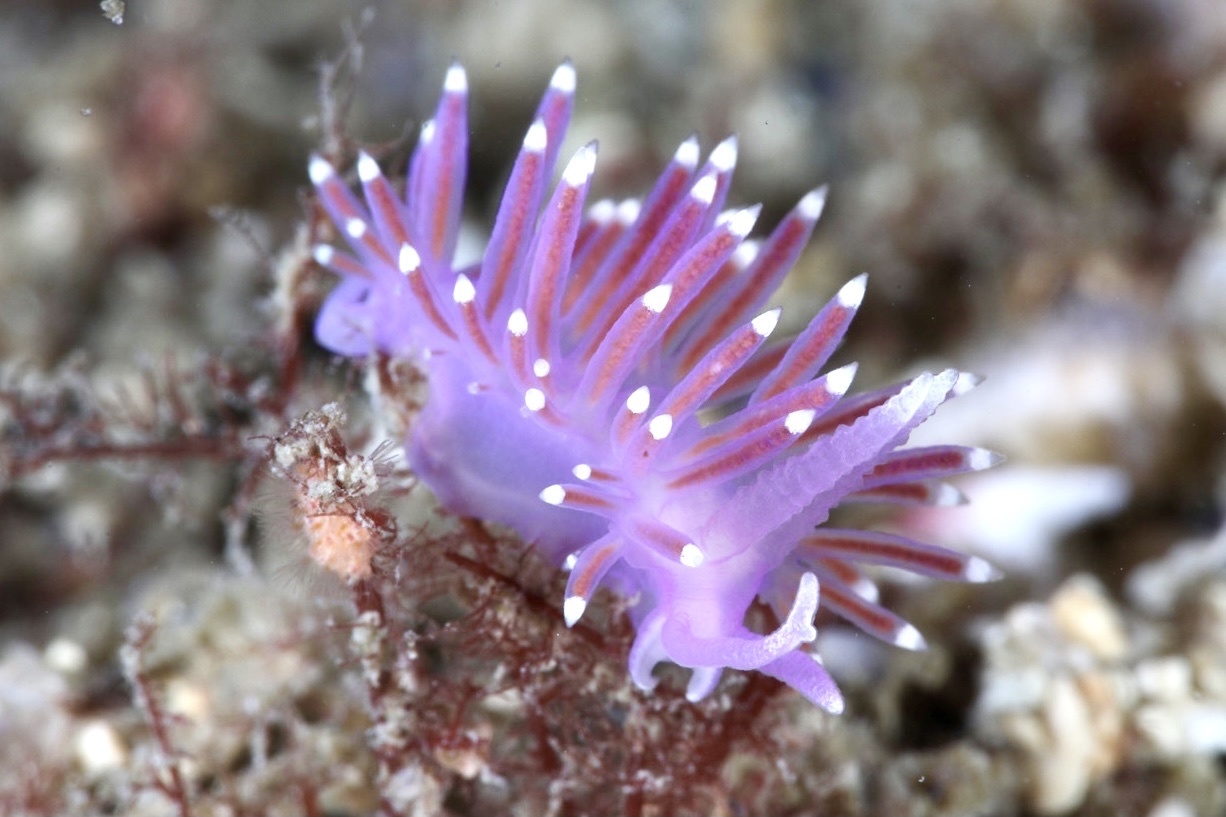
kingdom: Animalia
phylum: Mollusca
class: Gastropoda
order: Nudibranchia
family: Flabellinidae
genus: Edmundsella
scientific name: Edmundsella pedata
